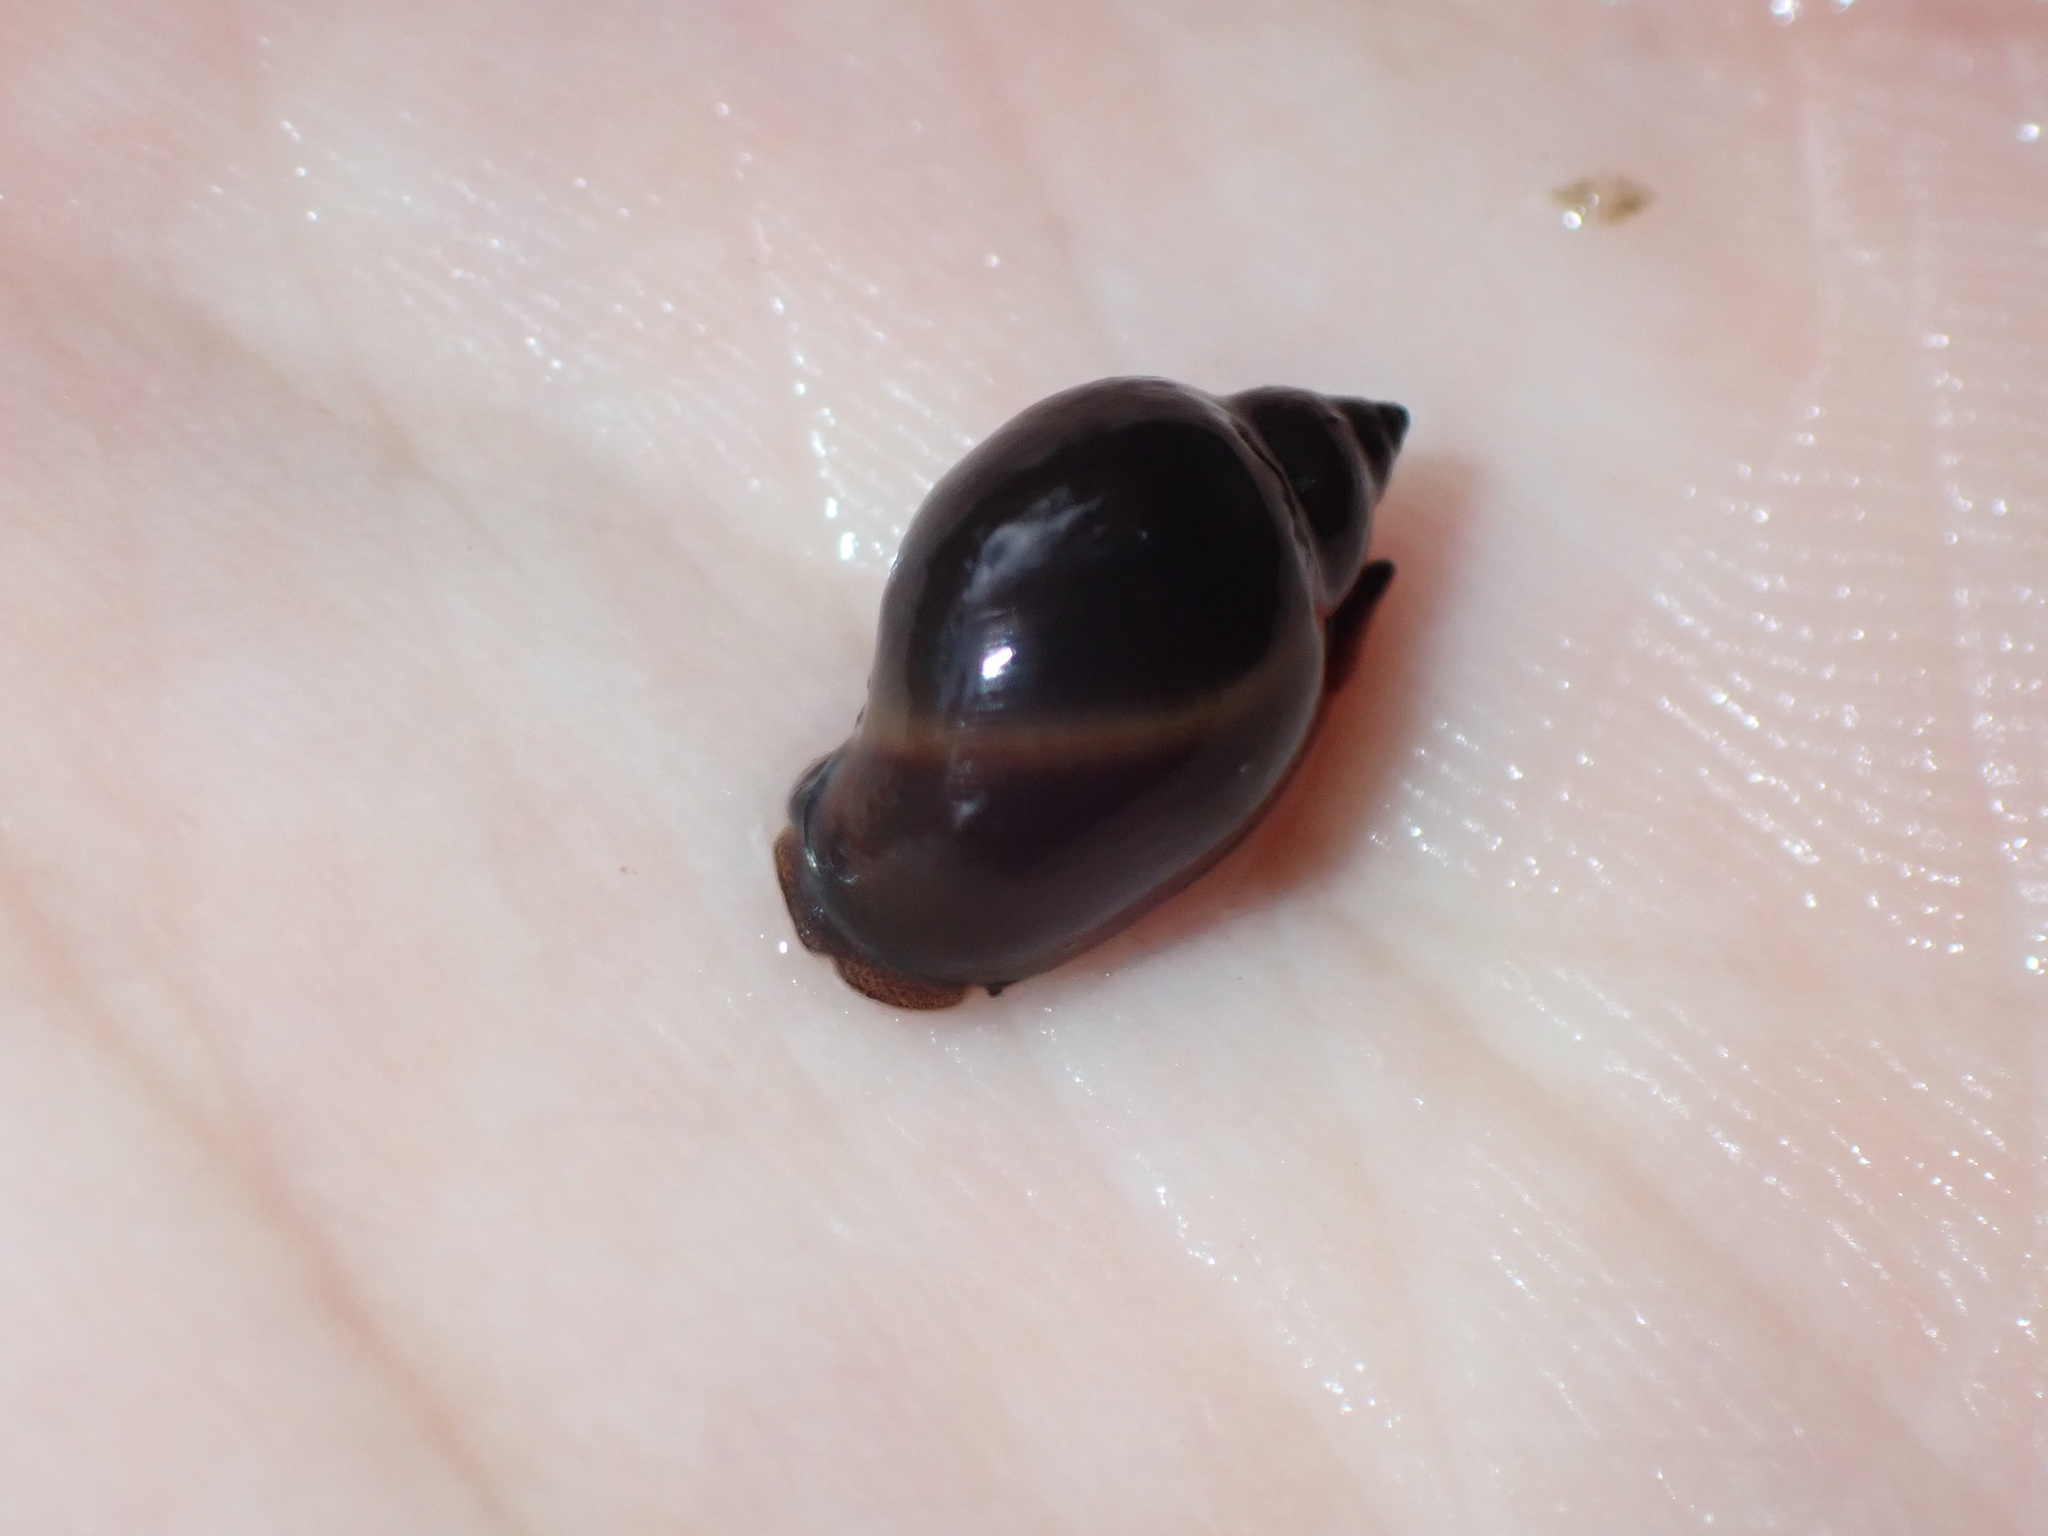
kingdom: Animalia
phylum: Mollusca
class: Gastropoda
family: Physidae
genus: Physella
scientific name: Physella acuta
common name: European physa
